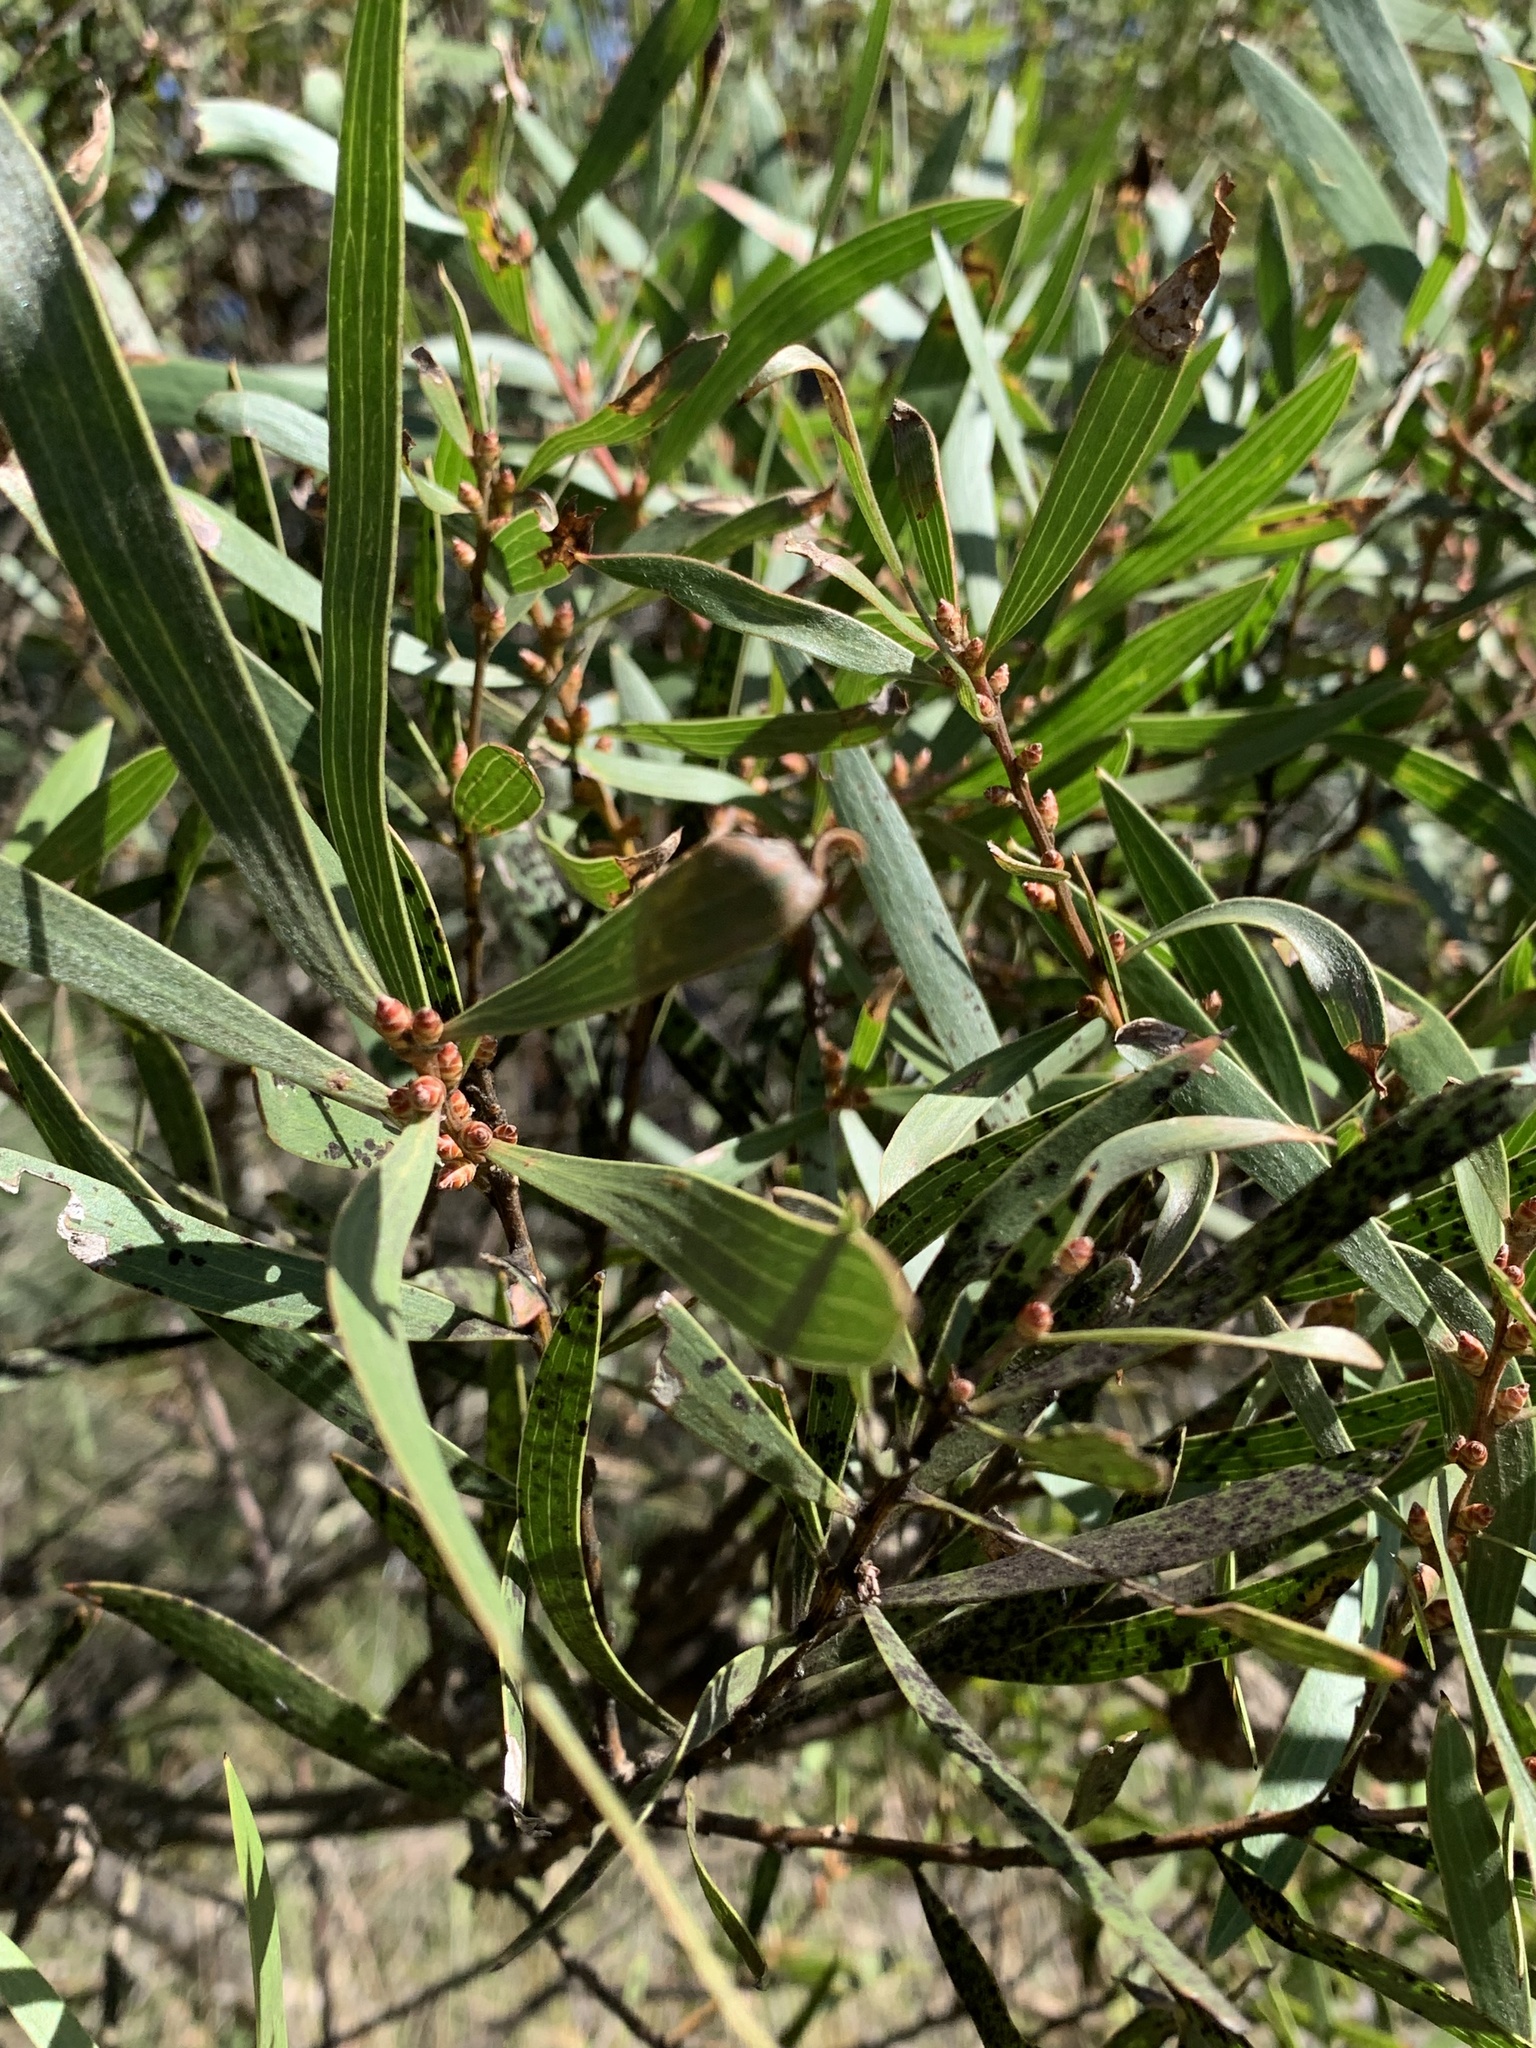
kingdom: Plantae
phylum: Tracheophyta
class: Magnoliopsida
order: Proteales
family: Proteaceae
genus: Hakea
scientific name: Hakea dactyloides
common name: Finger hakea
